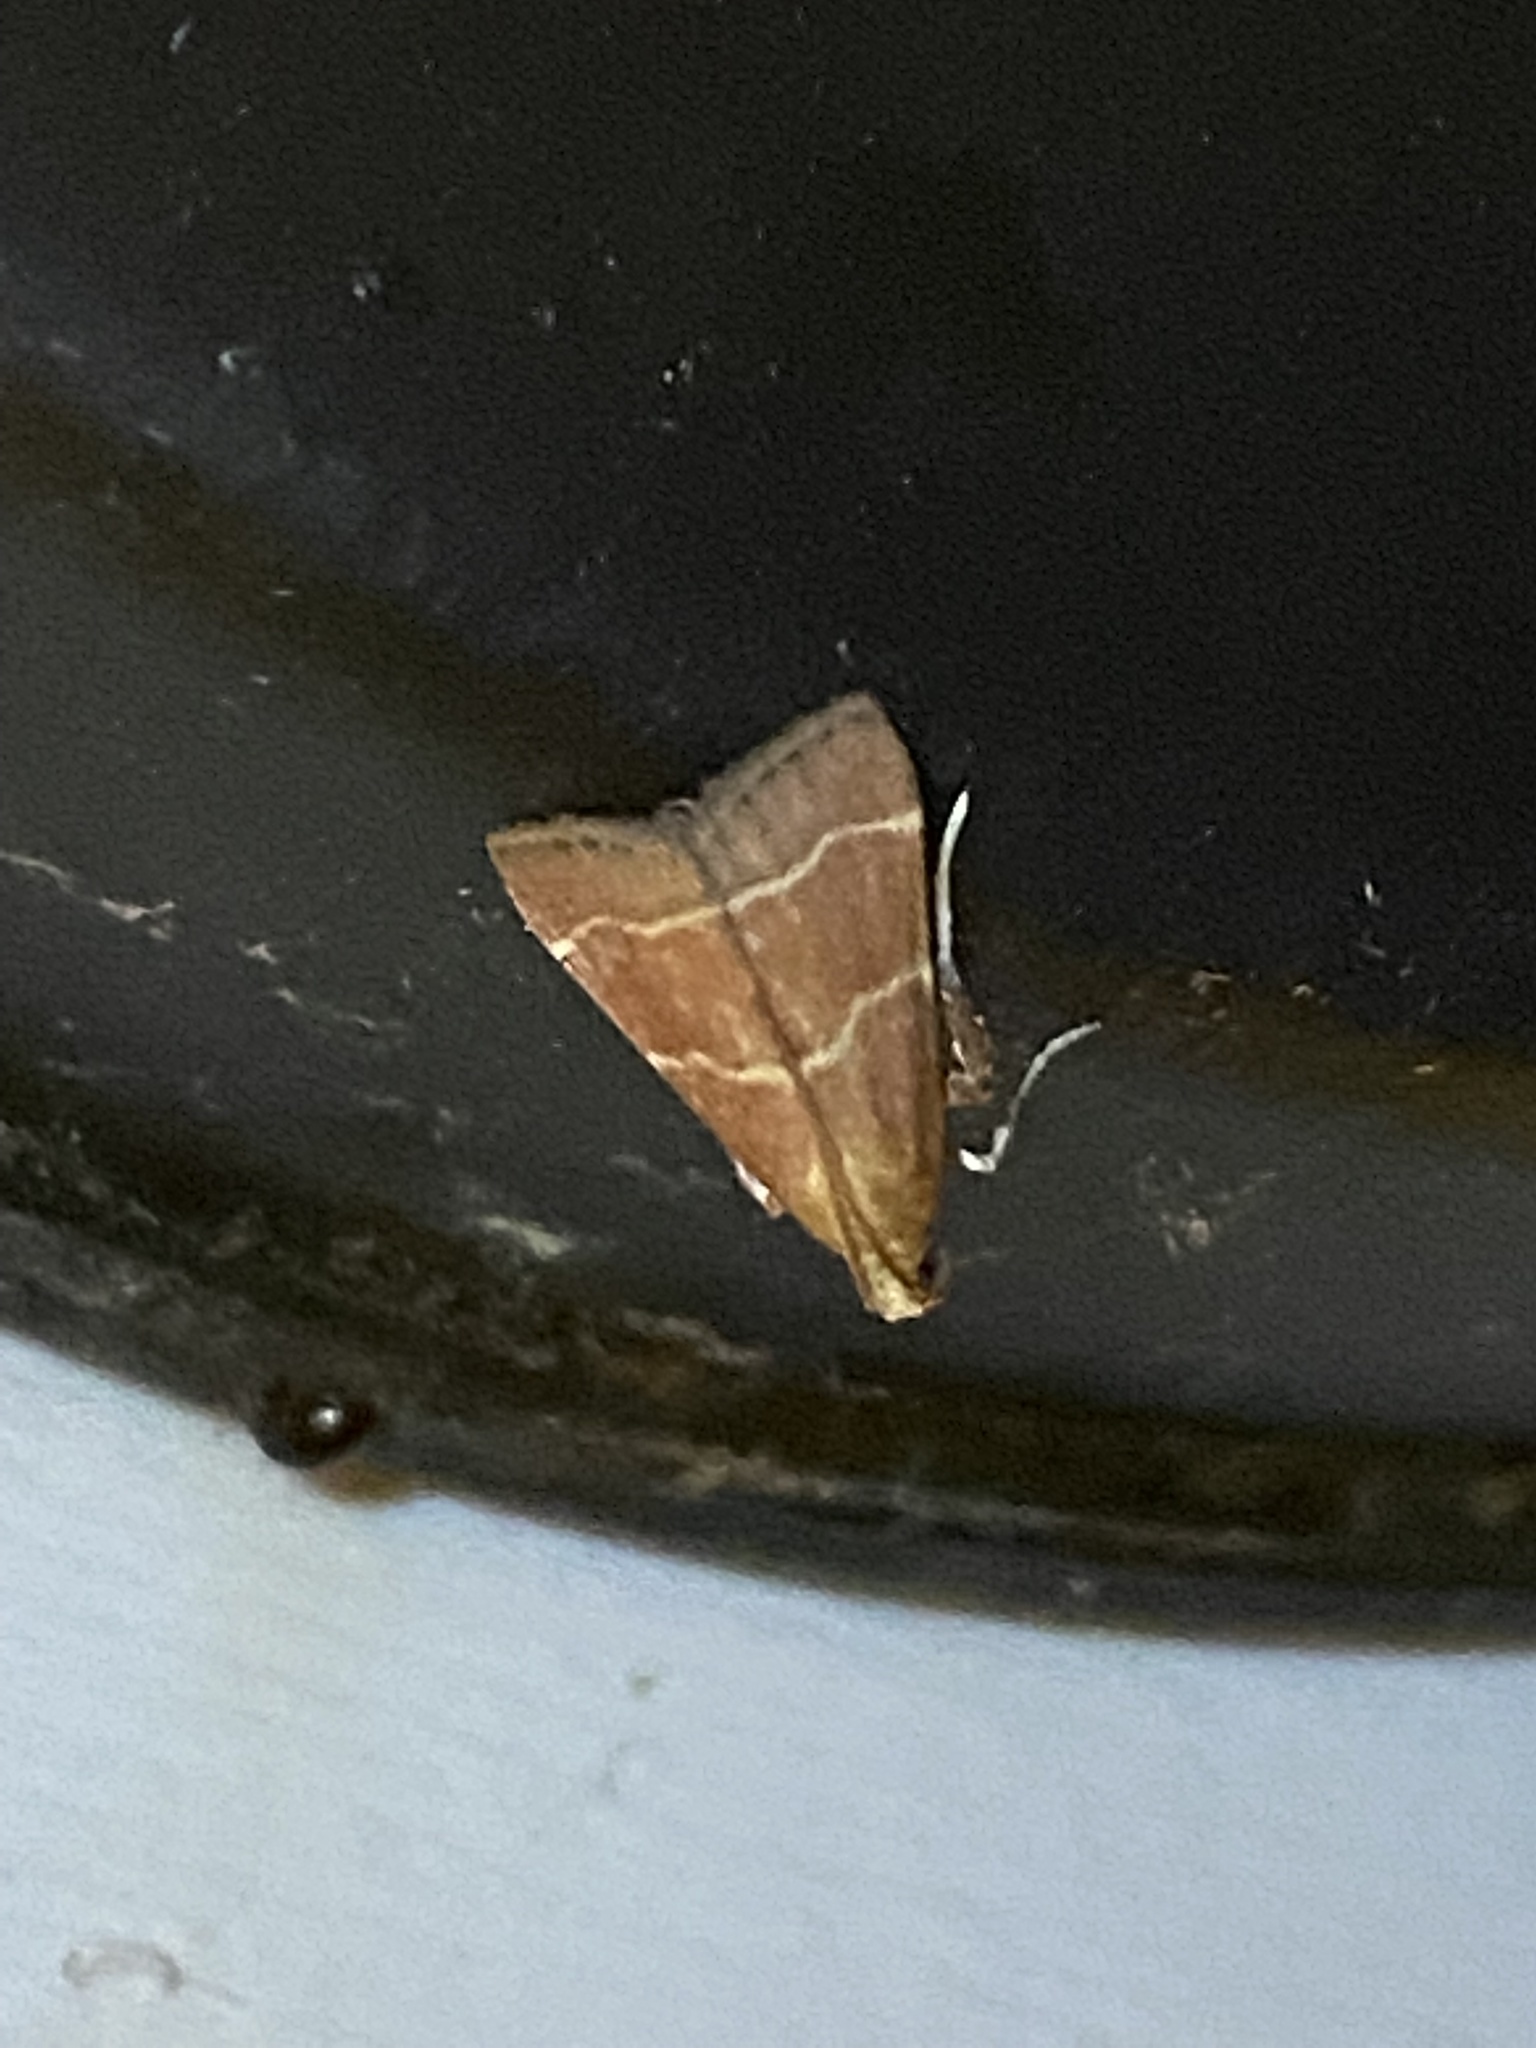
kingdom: Animalia
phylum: Arthropoda
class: Insecta
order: Lepidoptera
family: Pyralidae
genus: Arta
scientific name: Arta statalis
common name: Posturing arta moth
